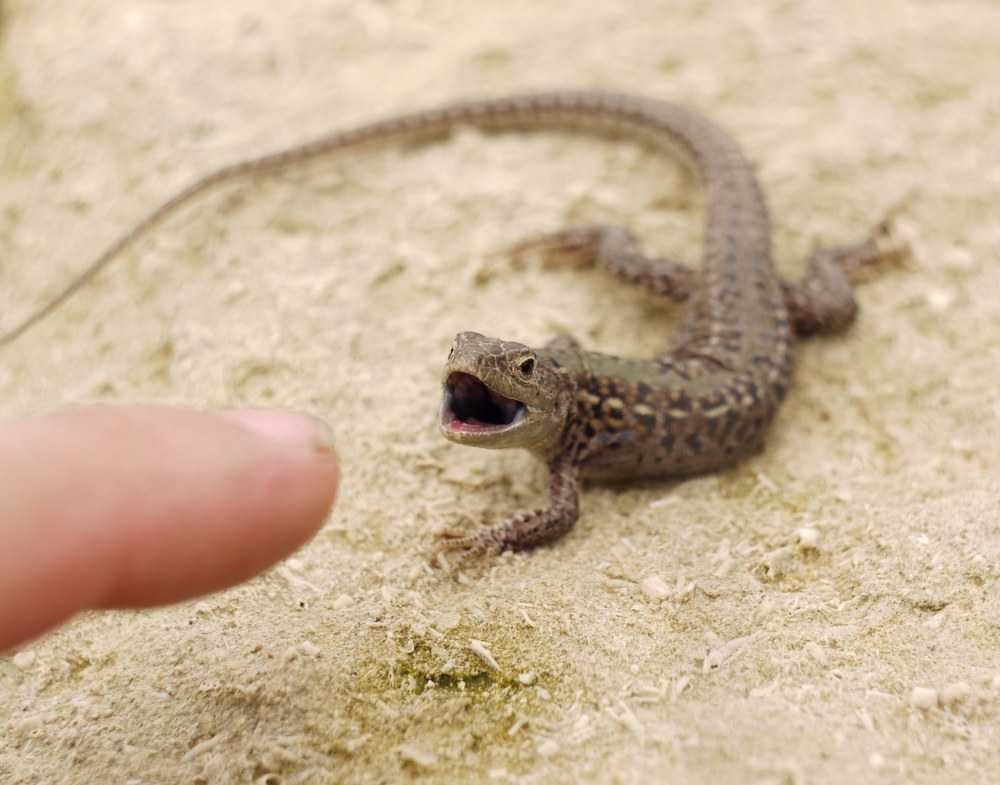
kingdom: Animalia
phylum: Chordata
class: Squamata
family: Lacertidae
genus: Podarcis
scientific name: Podarcis tauricus
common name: Balkan wall lizard
